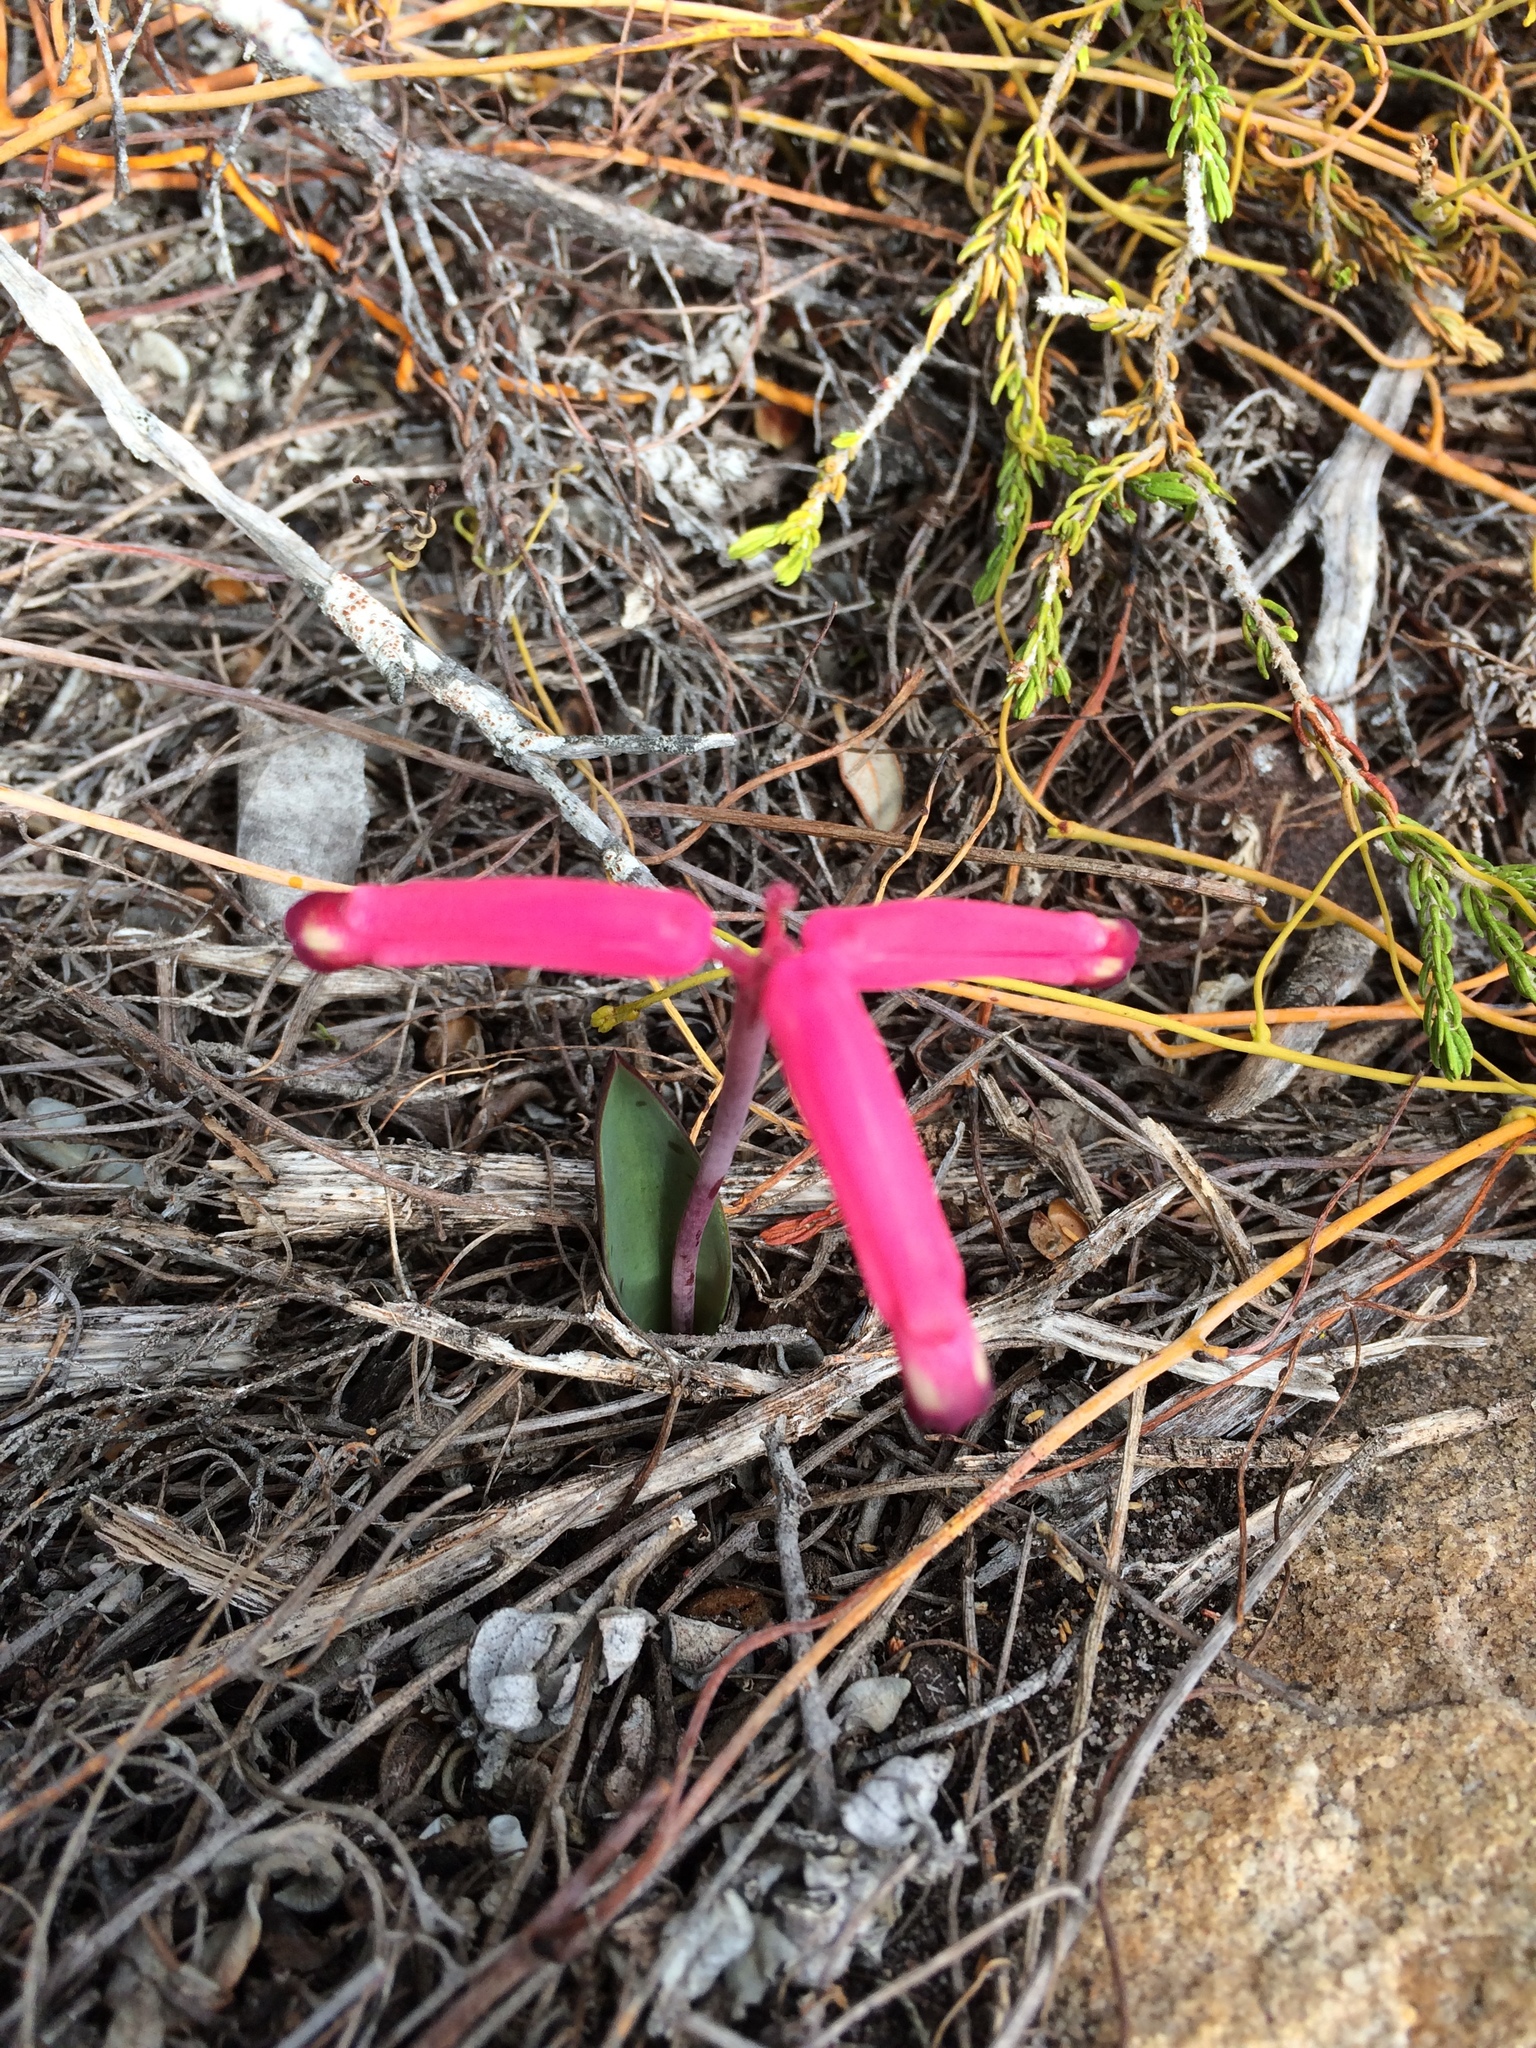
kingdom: Plantae
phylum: Tracheophyta
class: Liliopsida
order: Asparagales
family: Asparagaceae
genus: Lachenalia
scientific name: Lachenalia punctata
